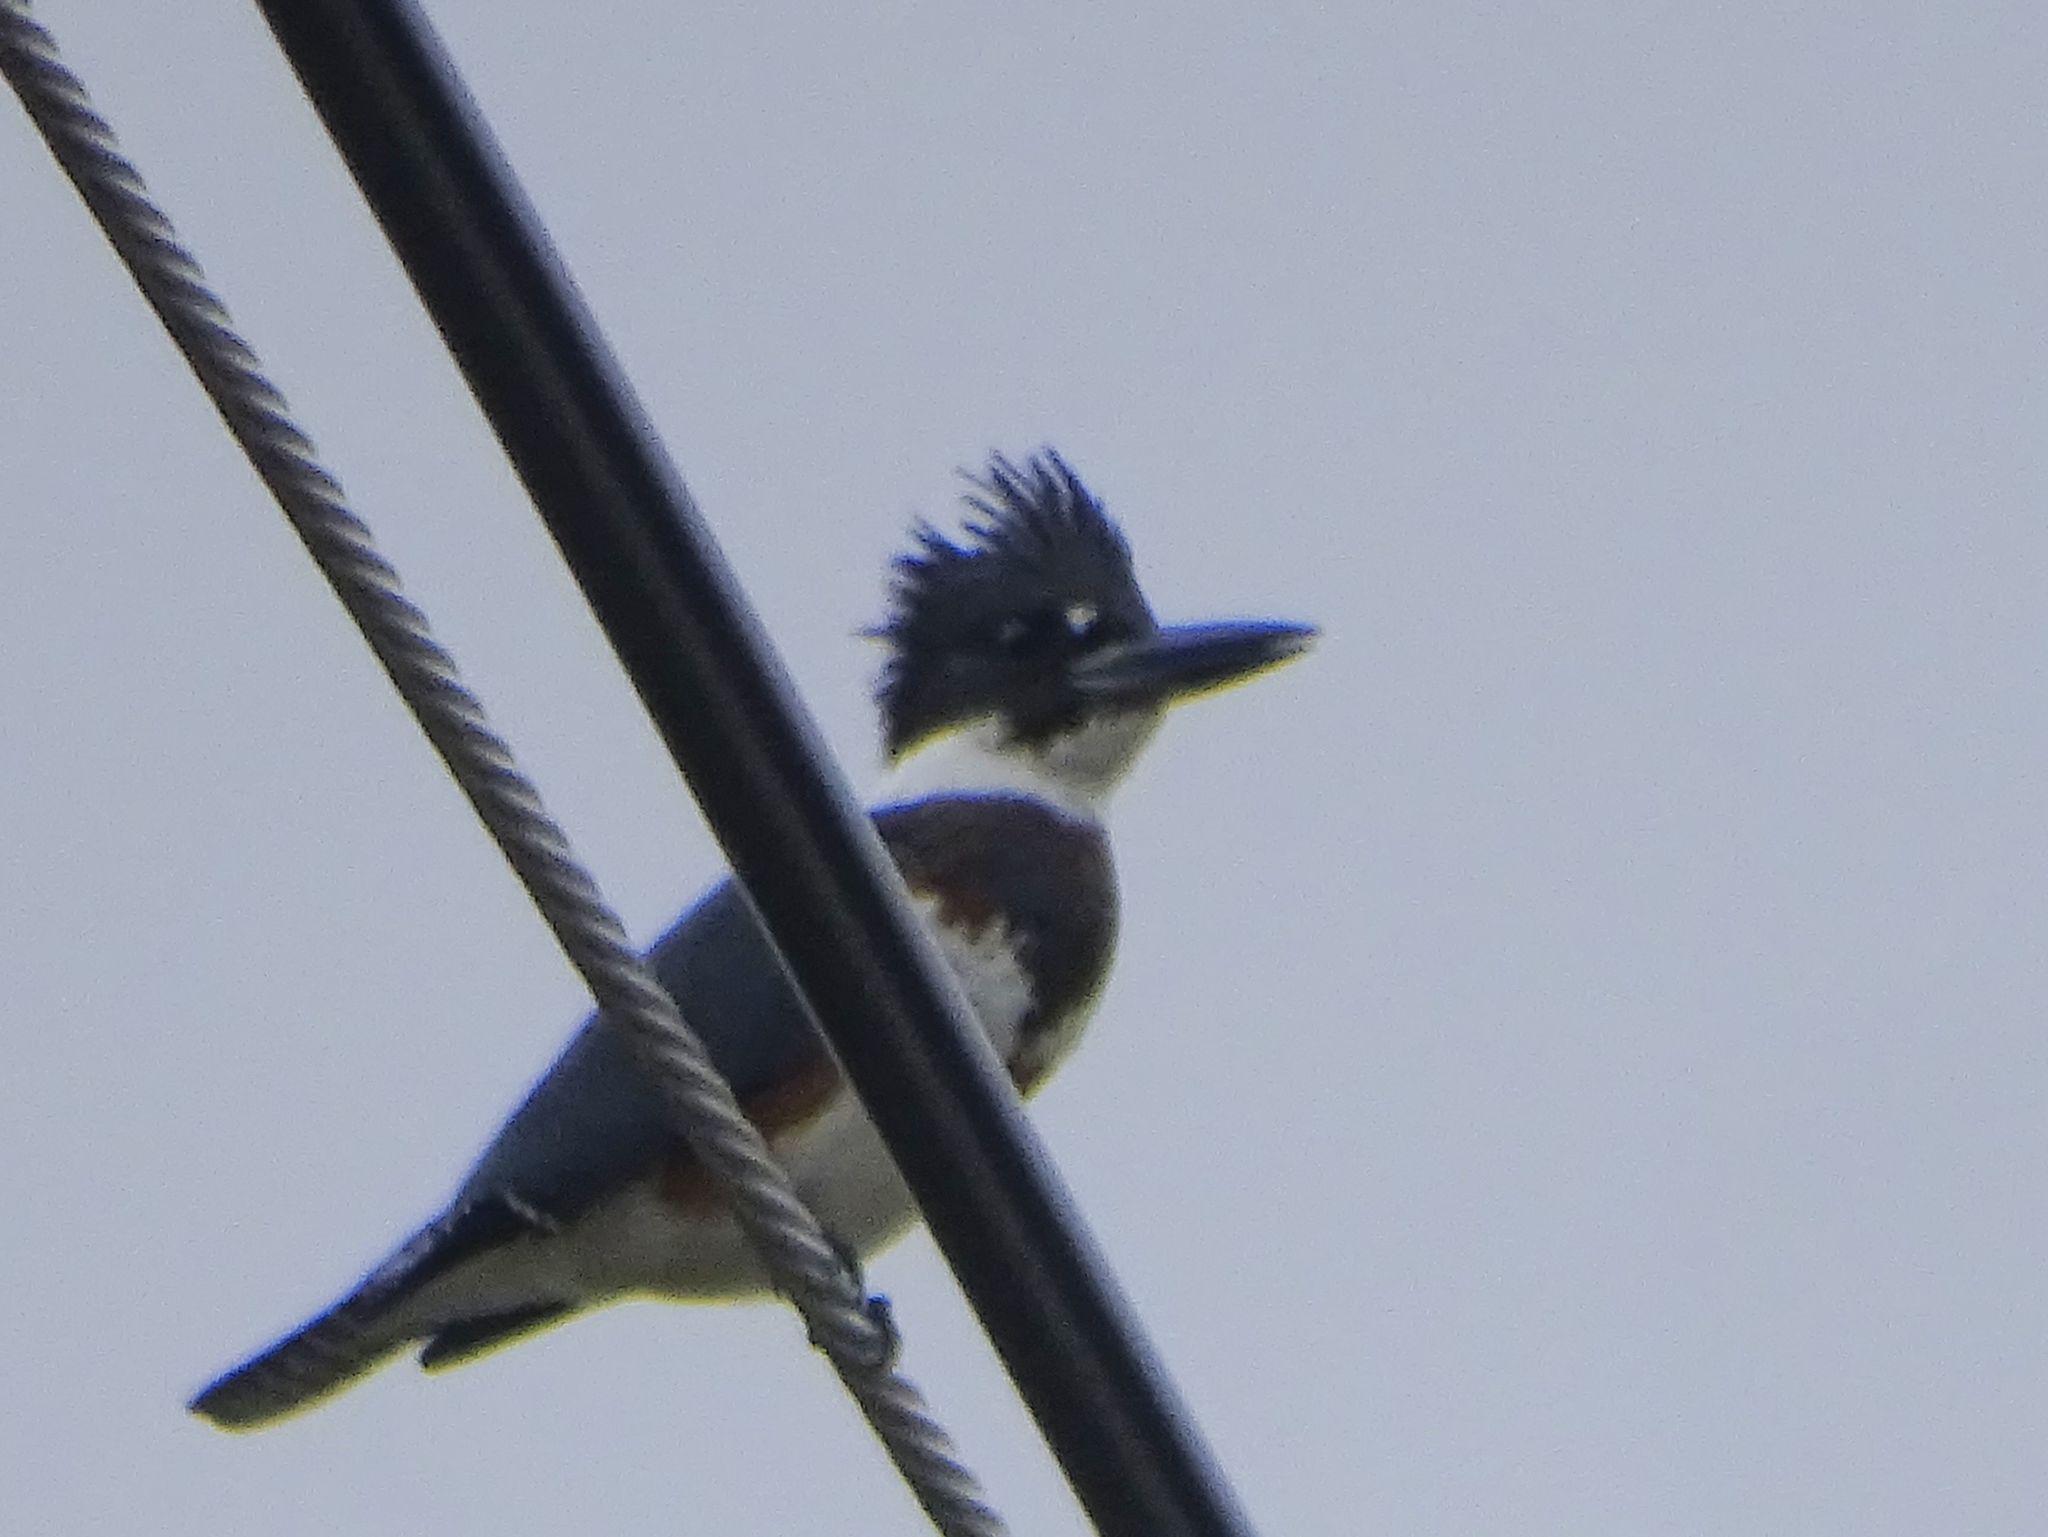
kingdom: Animalia
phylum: Chordata
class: Aves
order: Coraciiformes
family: Alcedinidae
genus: Megaceryle
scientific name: Megaceryle alcyon
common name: Belted kingfisher
